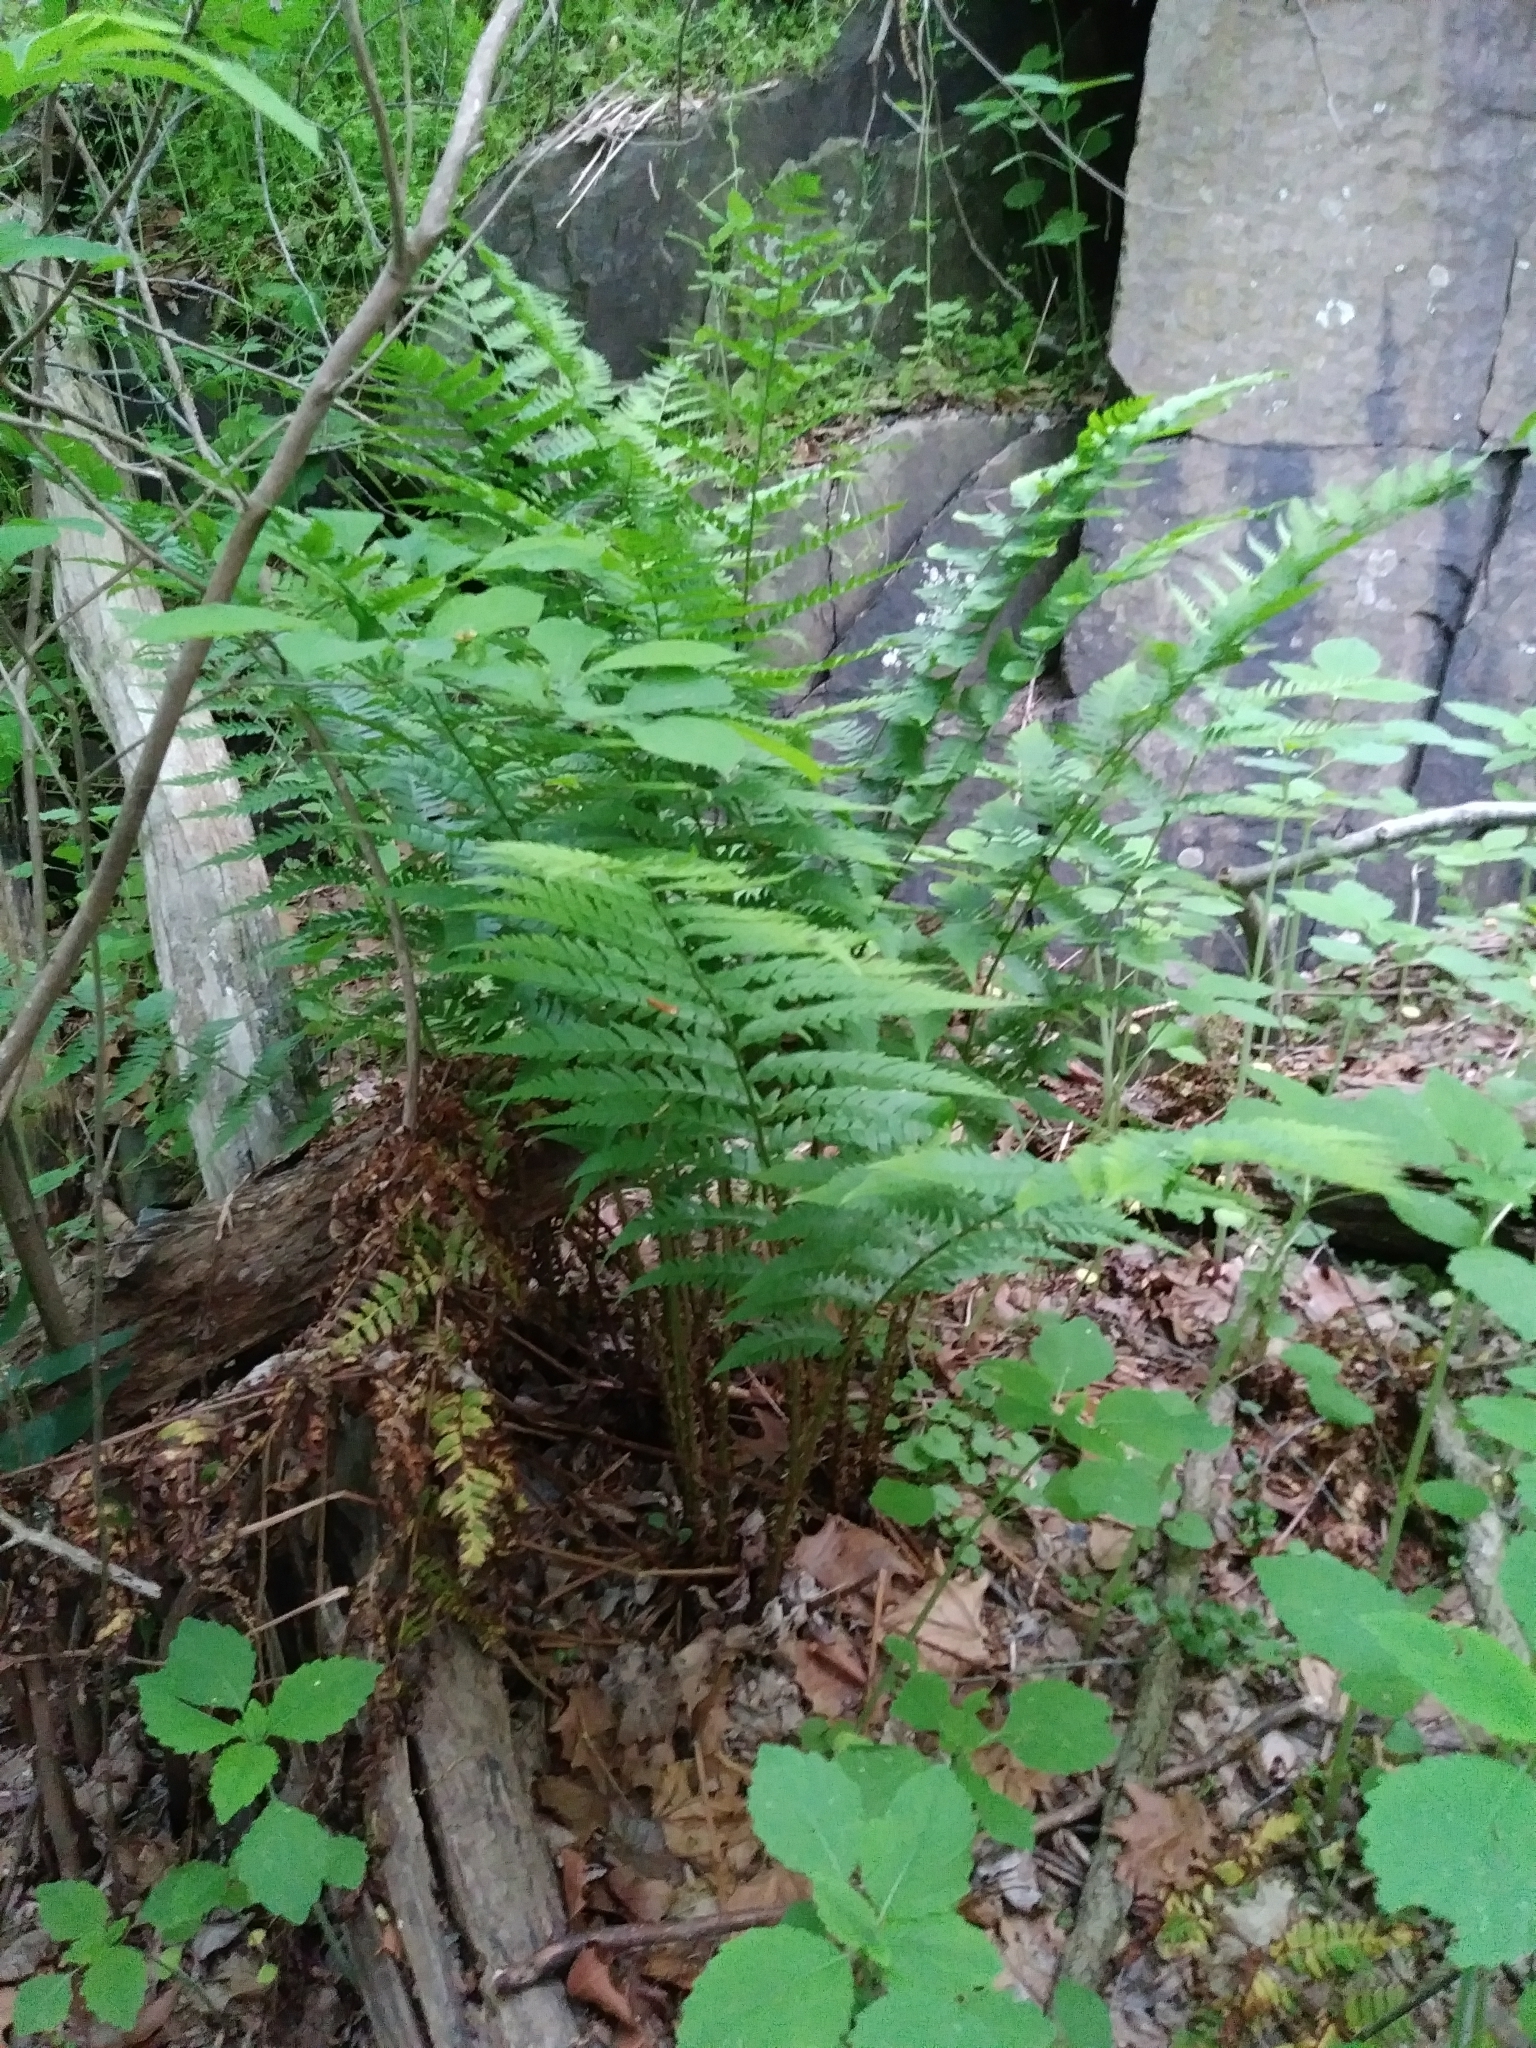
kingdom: Plantae
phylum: Tracheophyta
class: Polypodiopsida
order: Polypodiales
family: Dryopteridaceae
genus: Dryopteris
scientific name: Dryopteris leedsii
